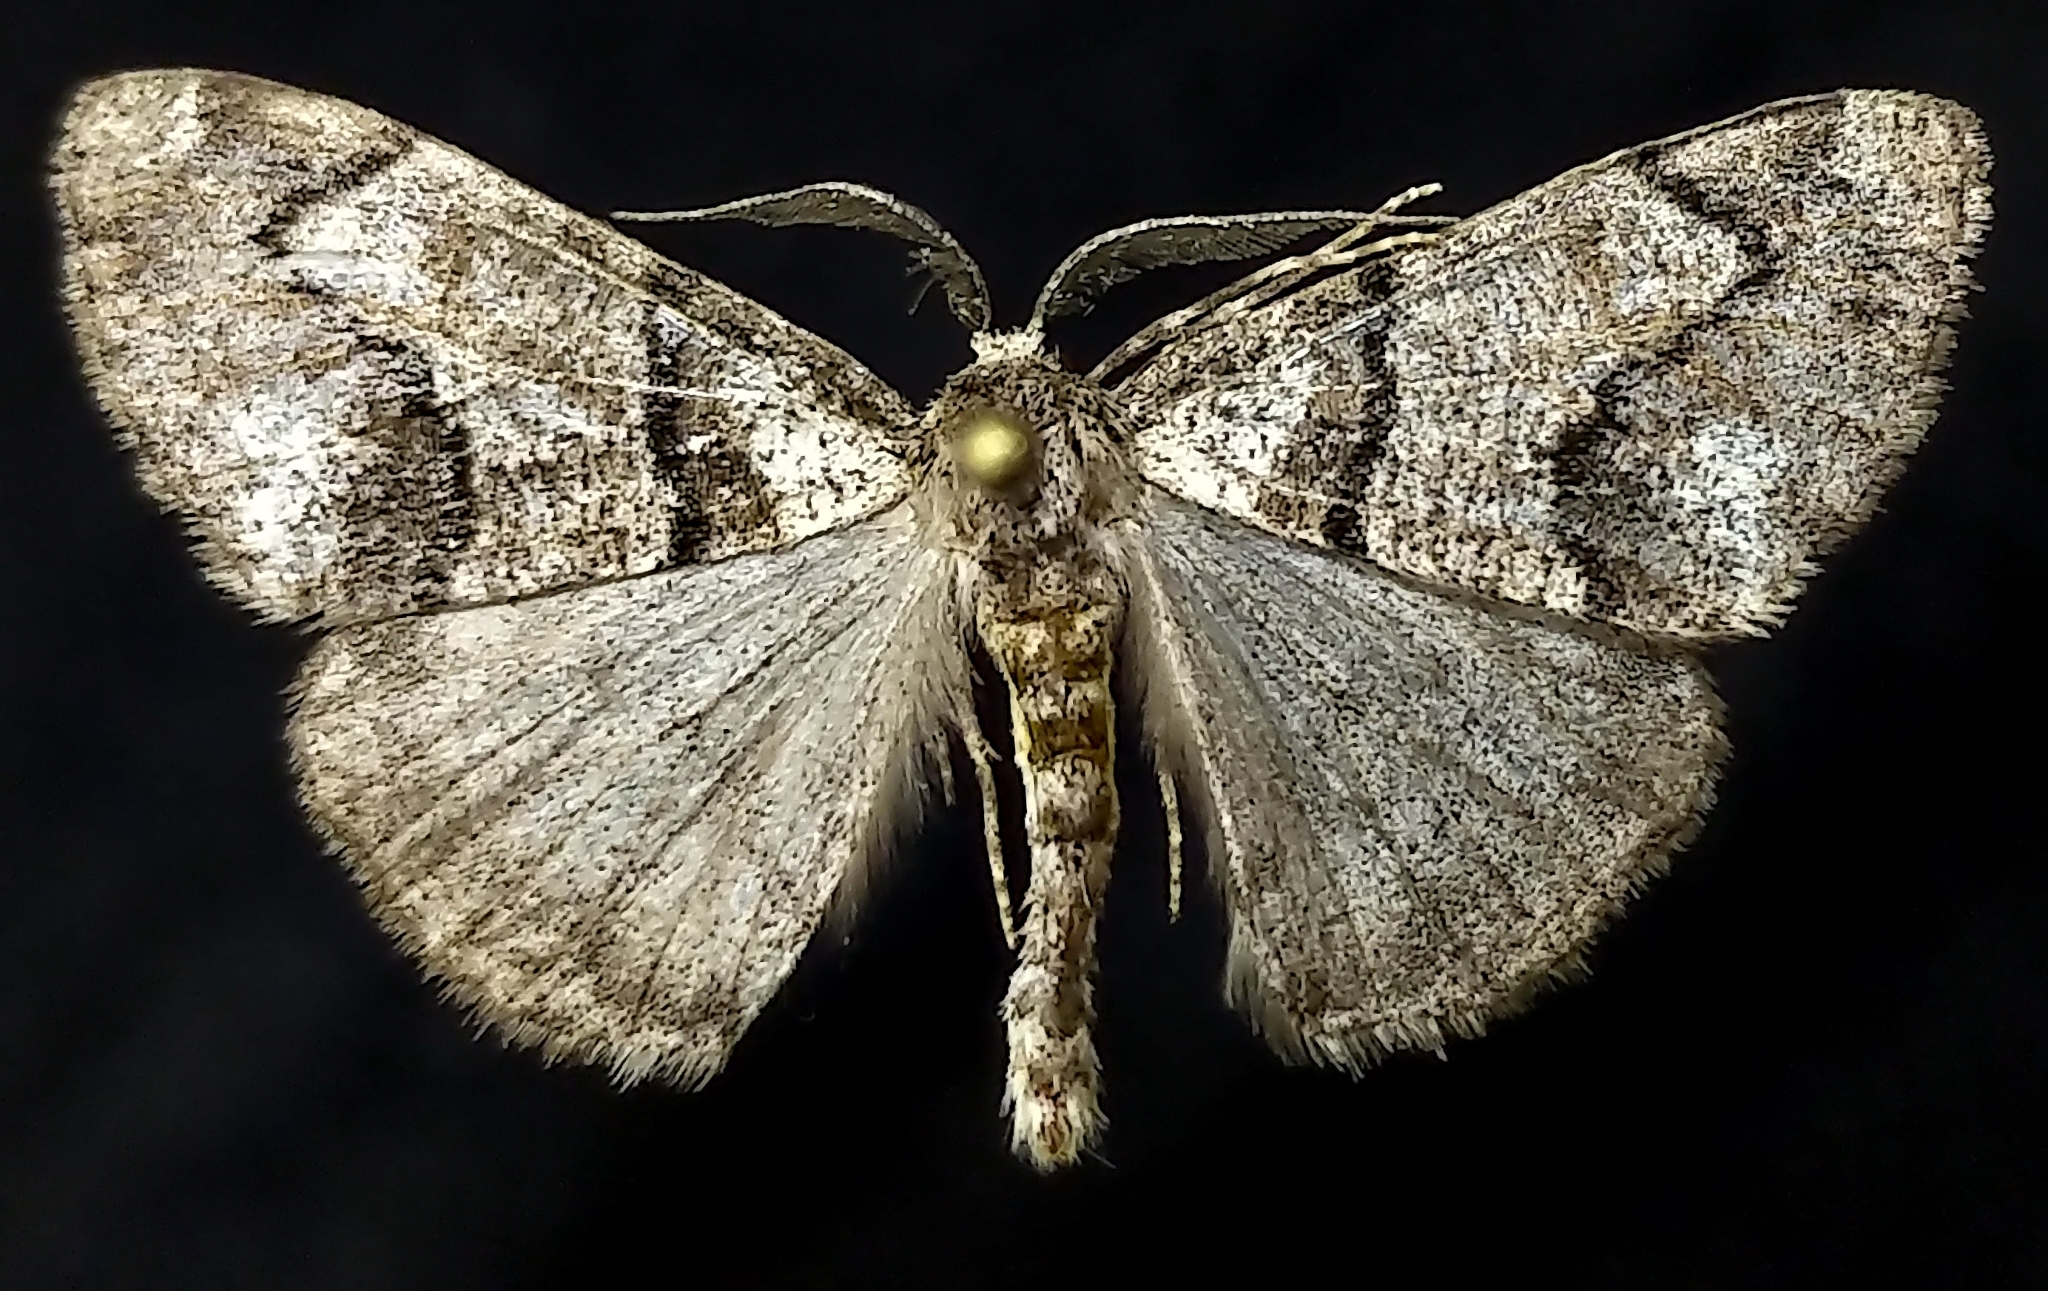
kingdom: Animalia
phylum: Arthropoda
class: Insecta
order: Lepidoptera
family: Geometridae
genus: Gabriola
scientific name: Gabriola dyari
